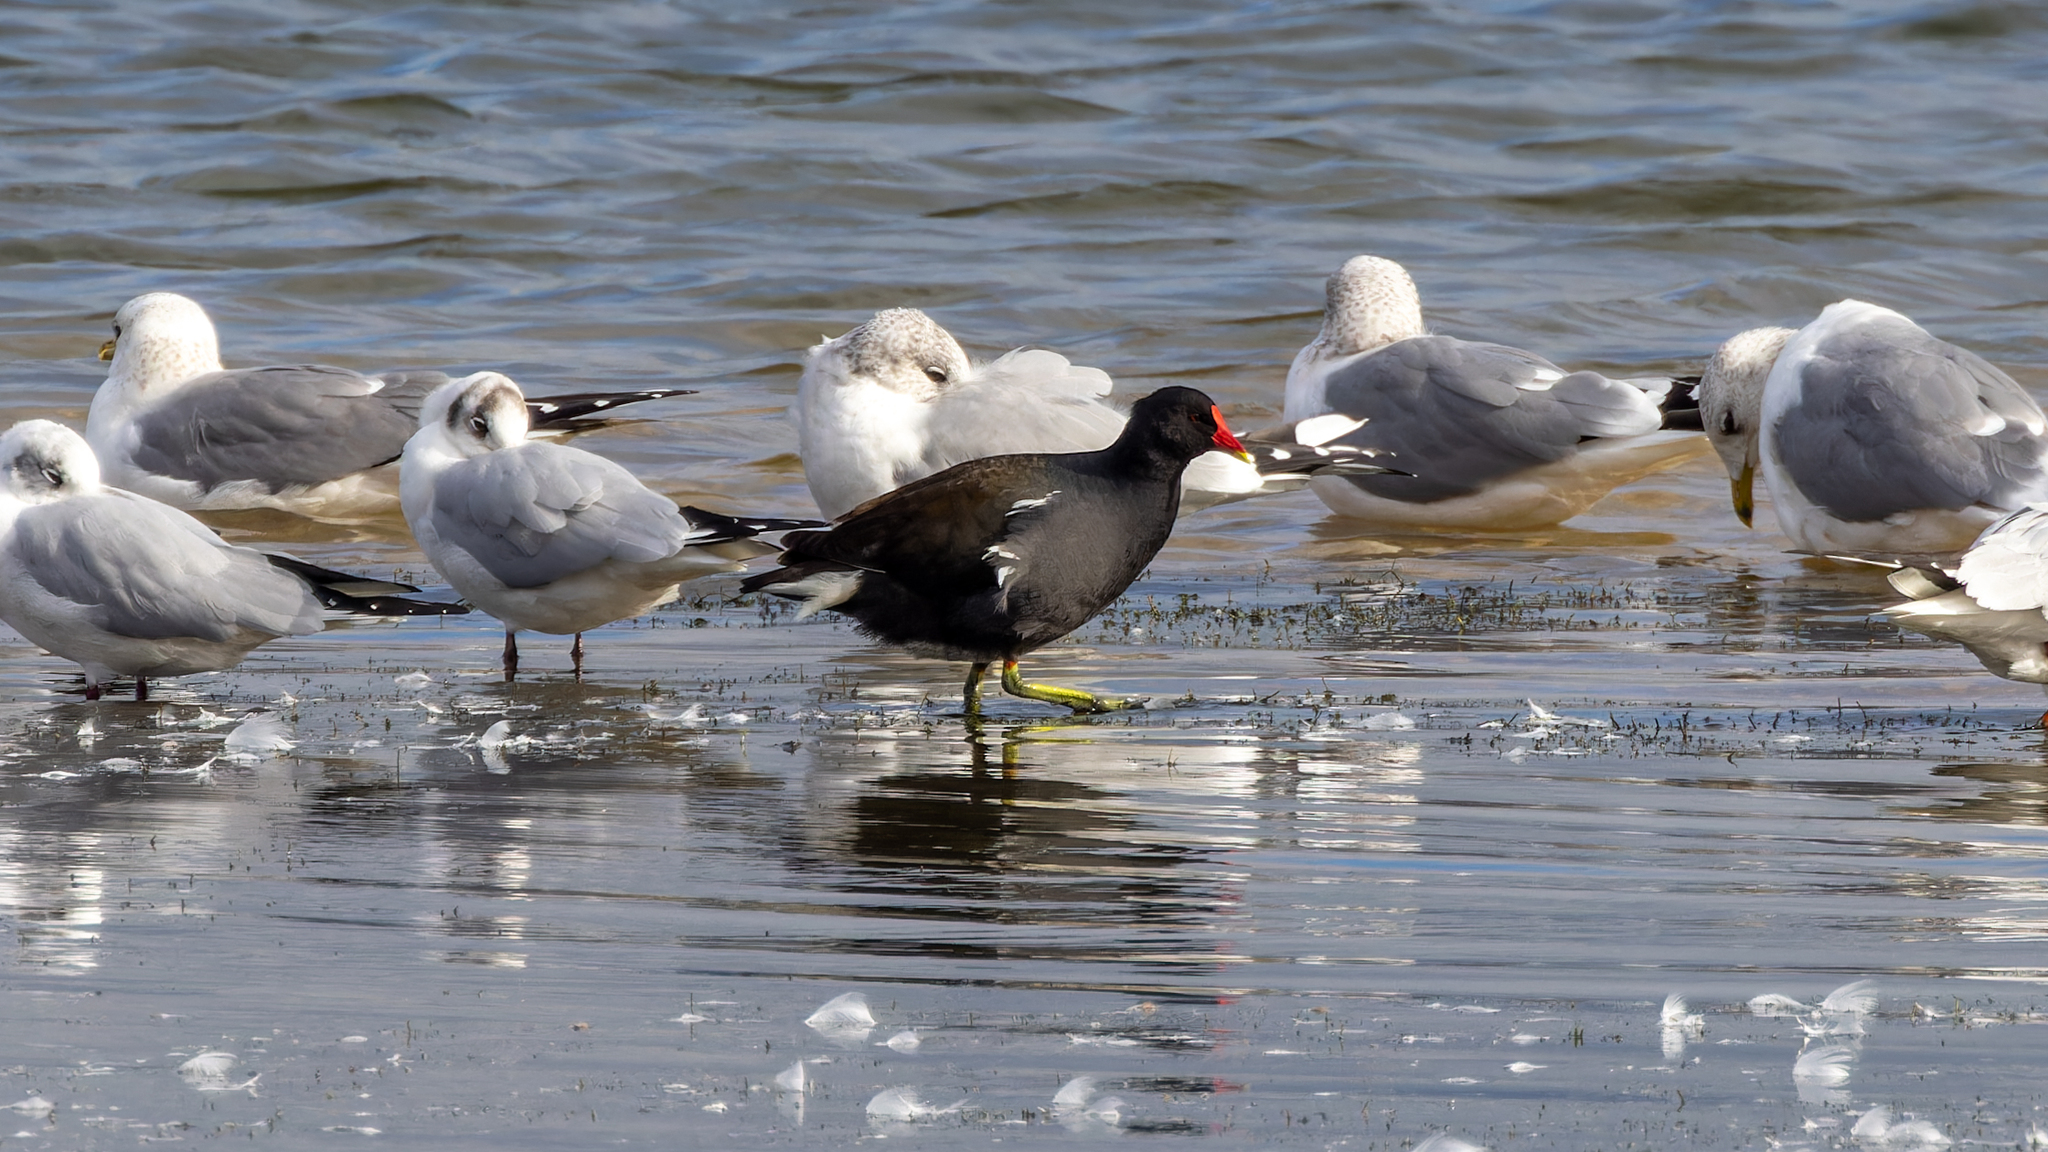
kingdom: Animalia
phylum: Chordata
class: Aves
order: Gruiformes
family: Rallidae
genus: Gallinula
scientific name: Gallinula chloropus
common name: Common moorhen
